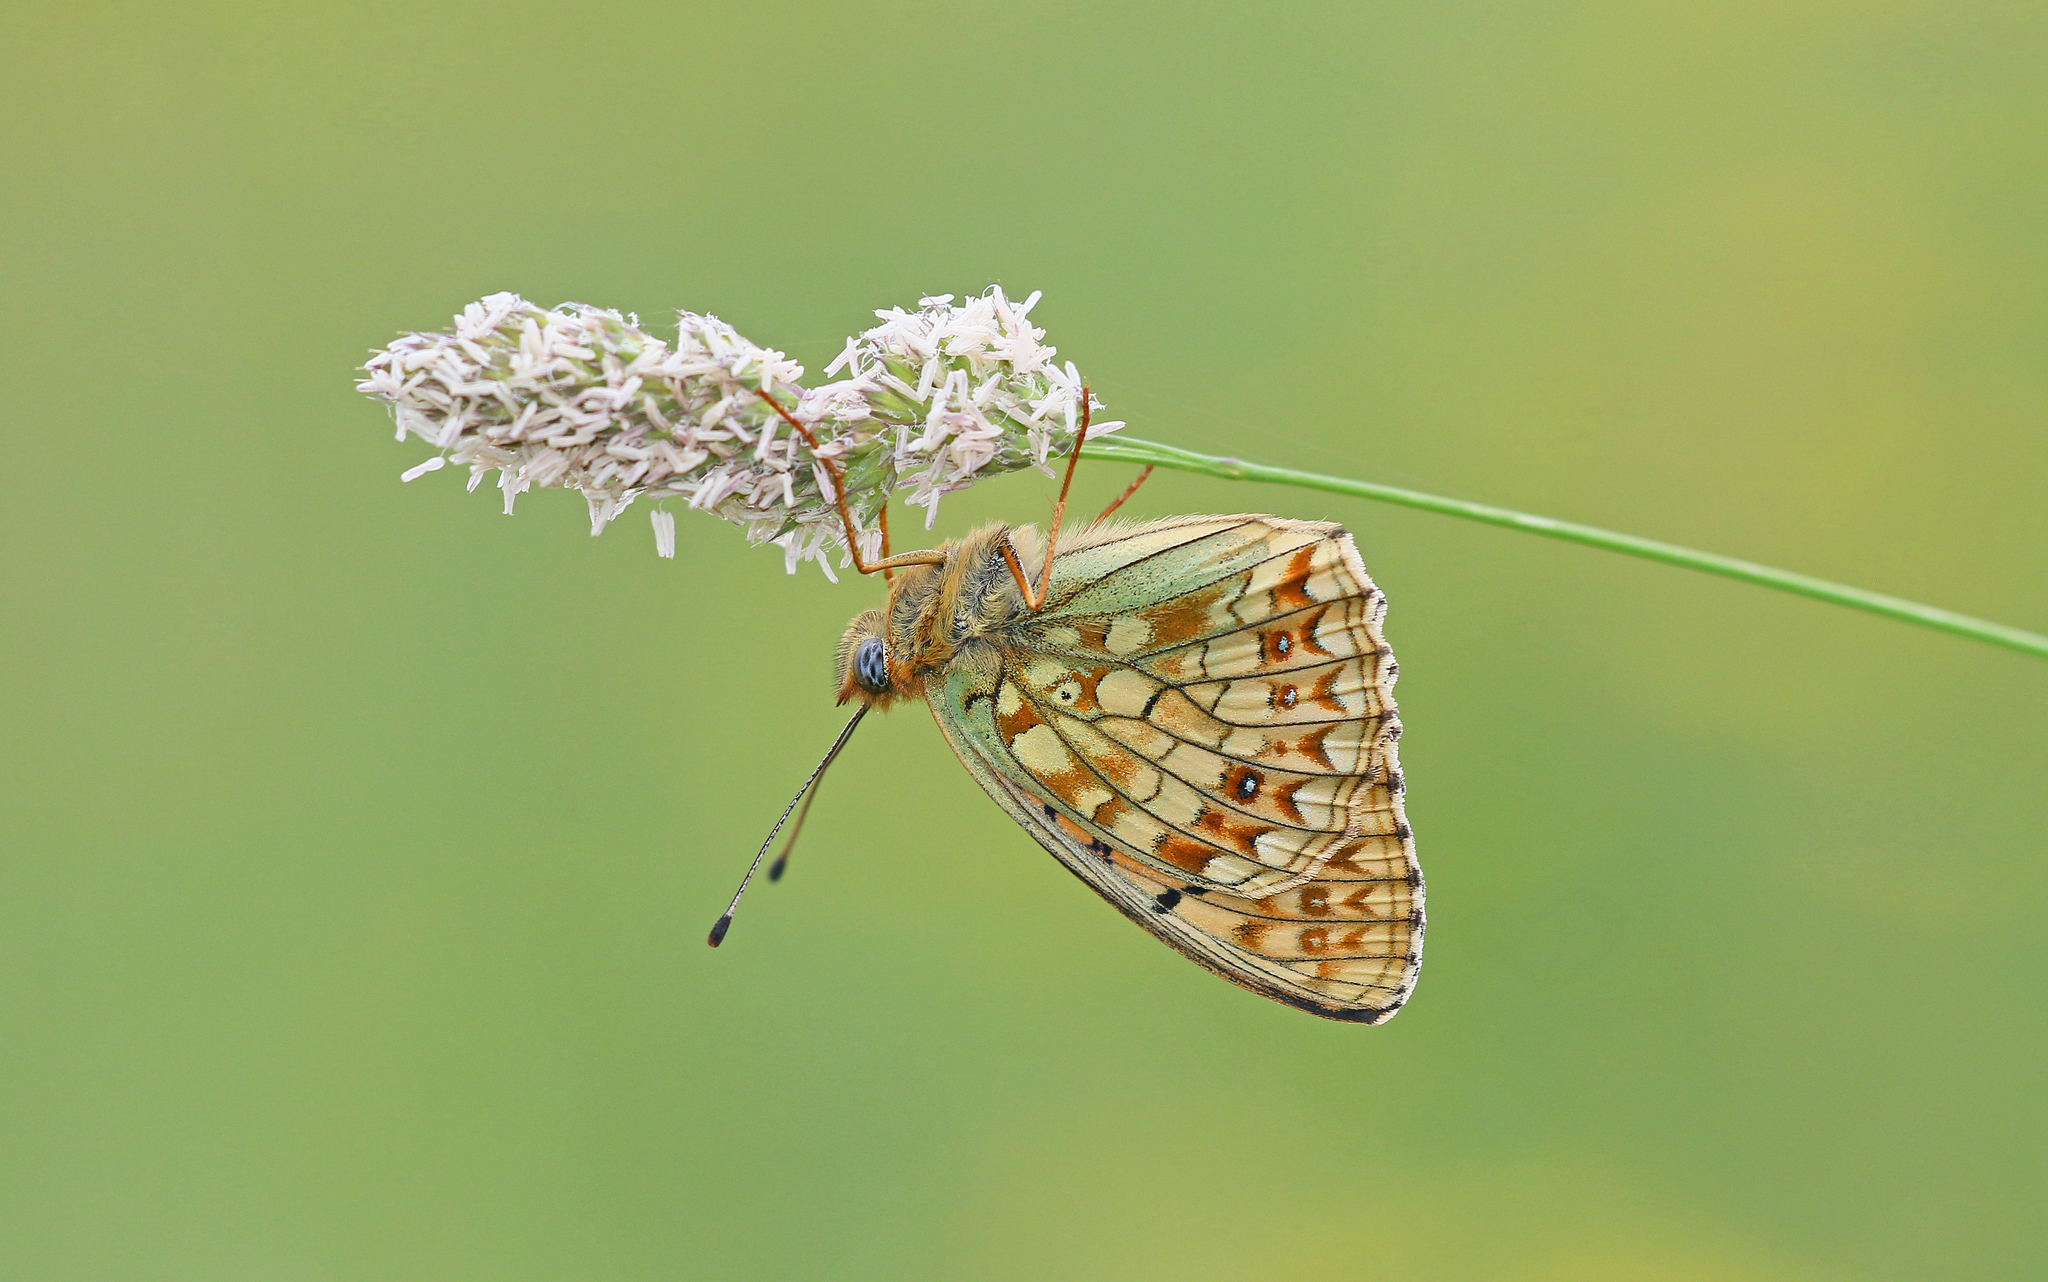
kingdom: Animalia
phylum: Arthropoda
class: Insecta
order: Lepidoptera
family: Nymphalidae
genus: Fabriciana
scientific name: Fabriciana niobe
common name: Niobe fritillary
